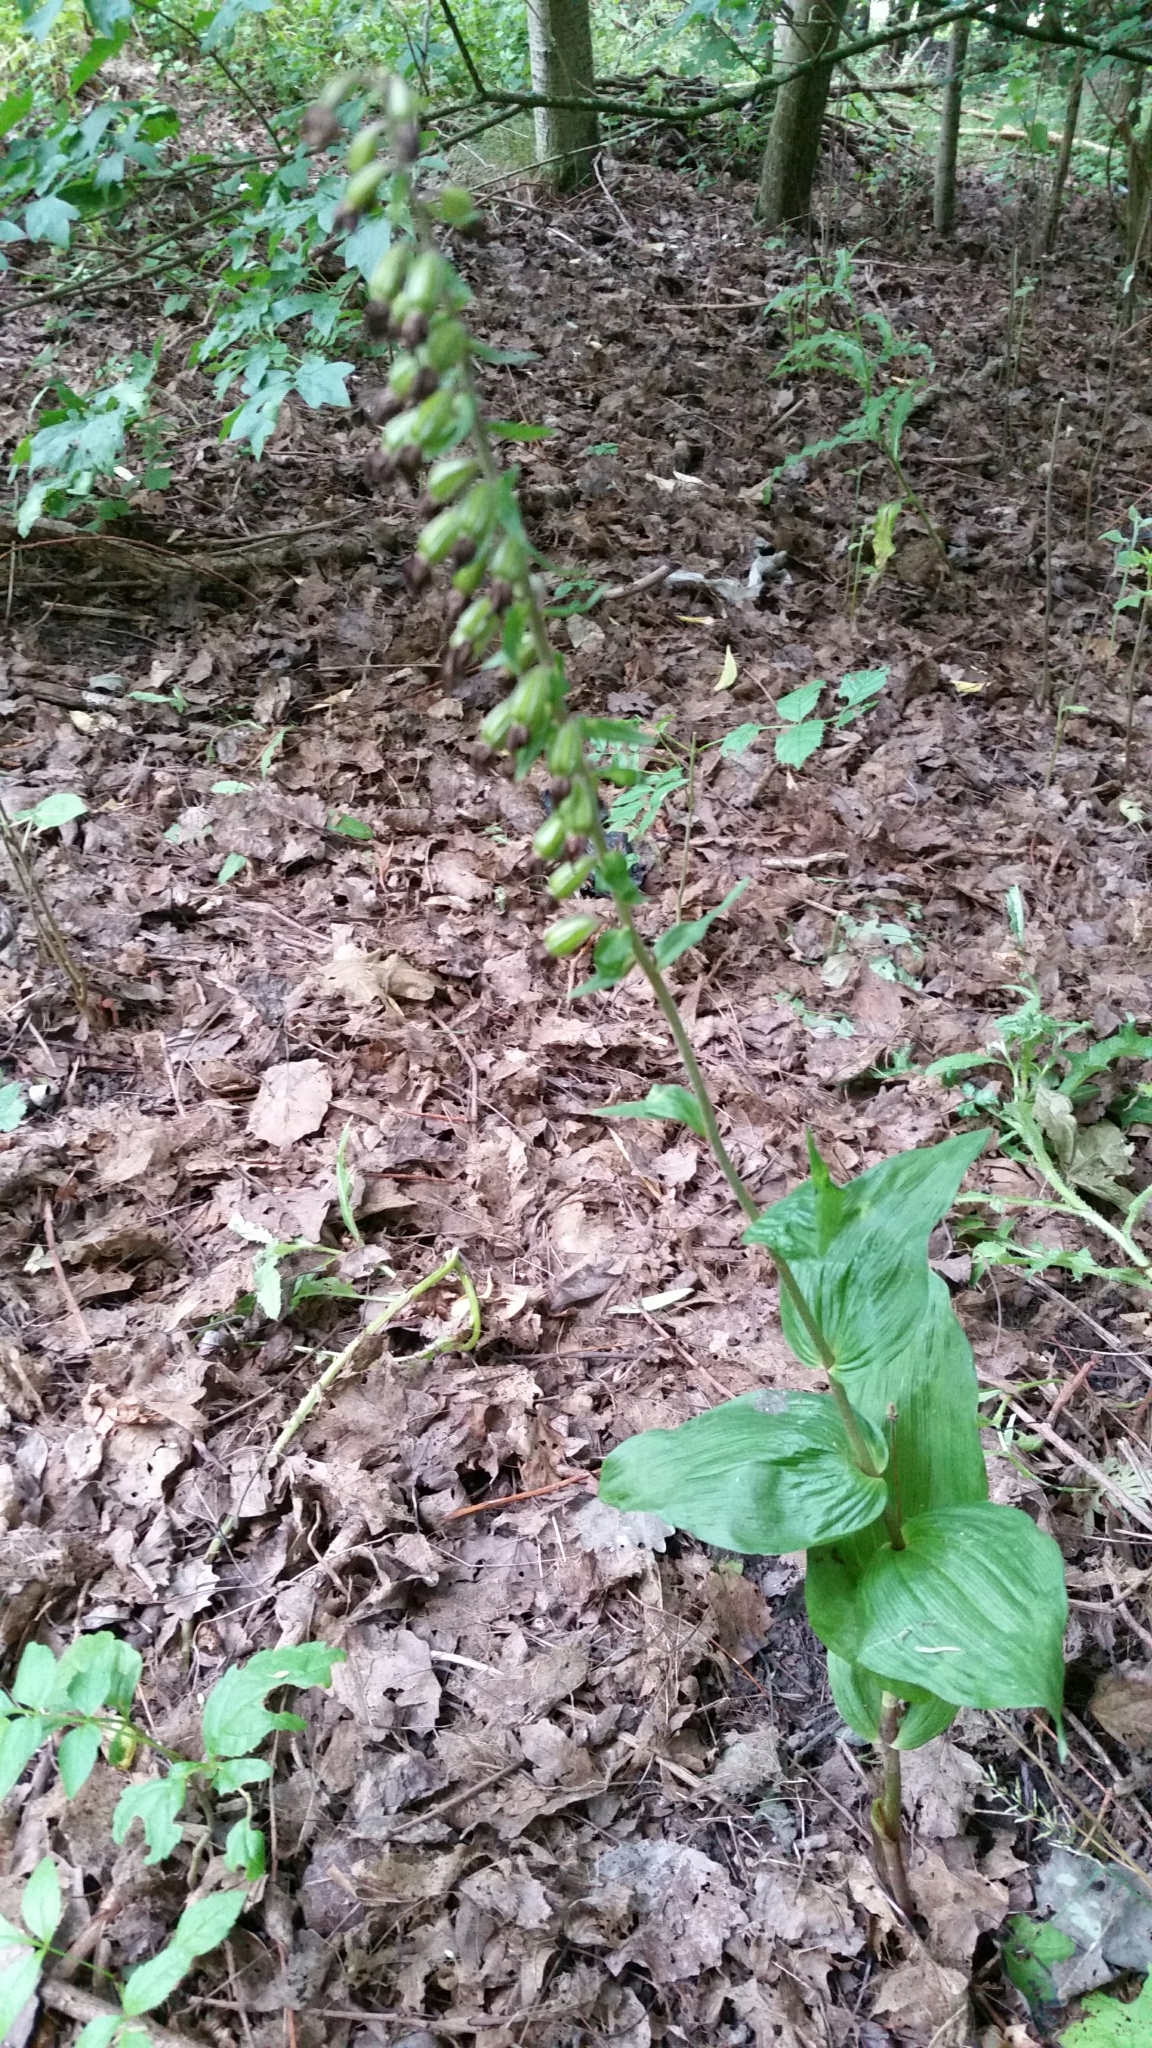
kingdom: Plantae
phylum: Tracheophyta
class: Liliopsida
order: Asparagales
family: Orchidaceae
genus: Epipactis
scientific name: Epipactis helleborine
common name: Broad-leaved helleborine
